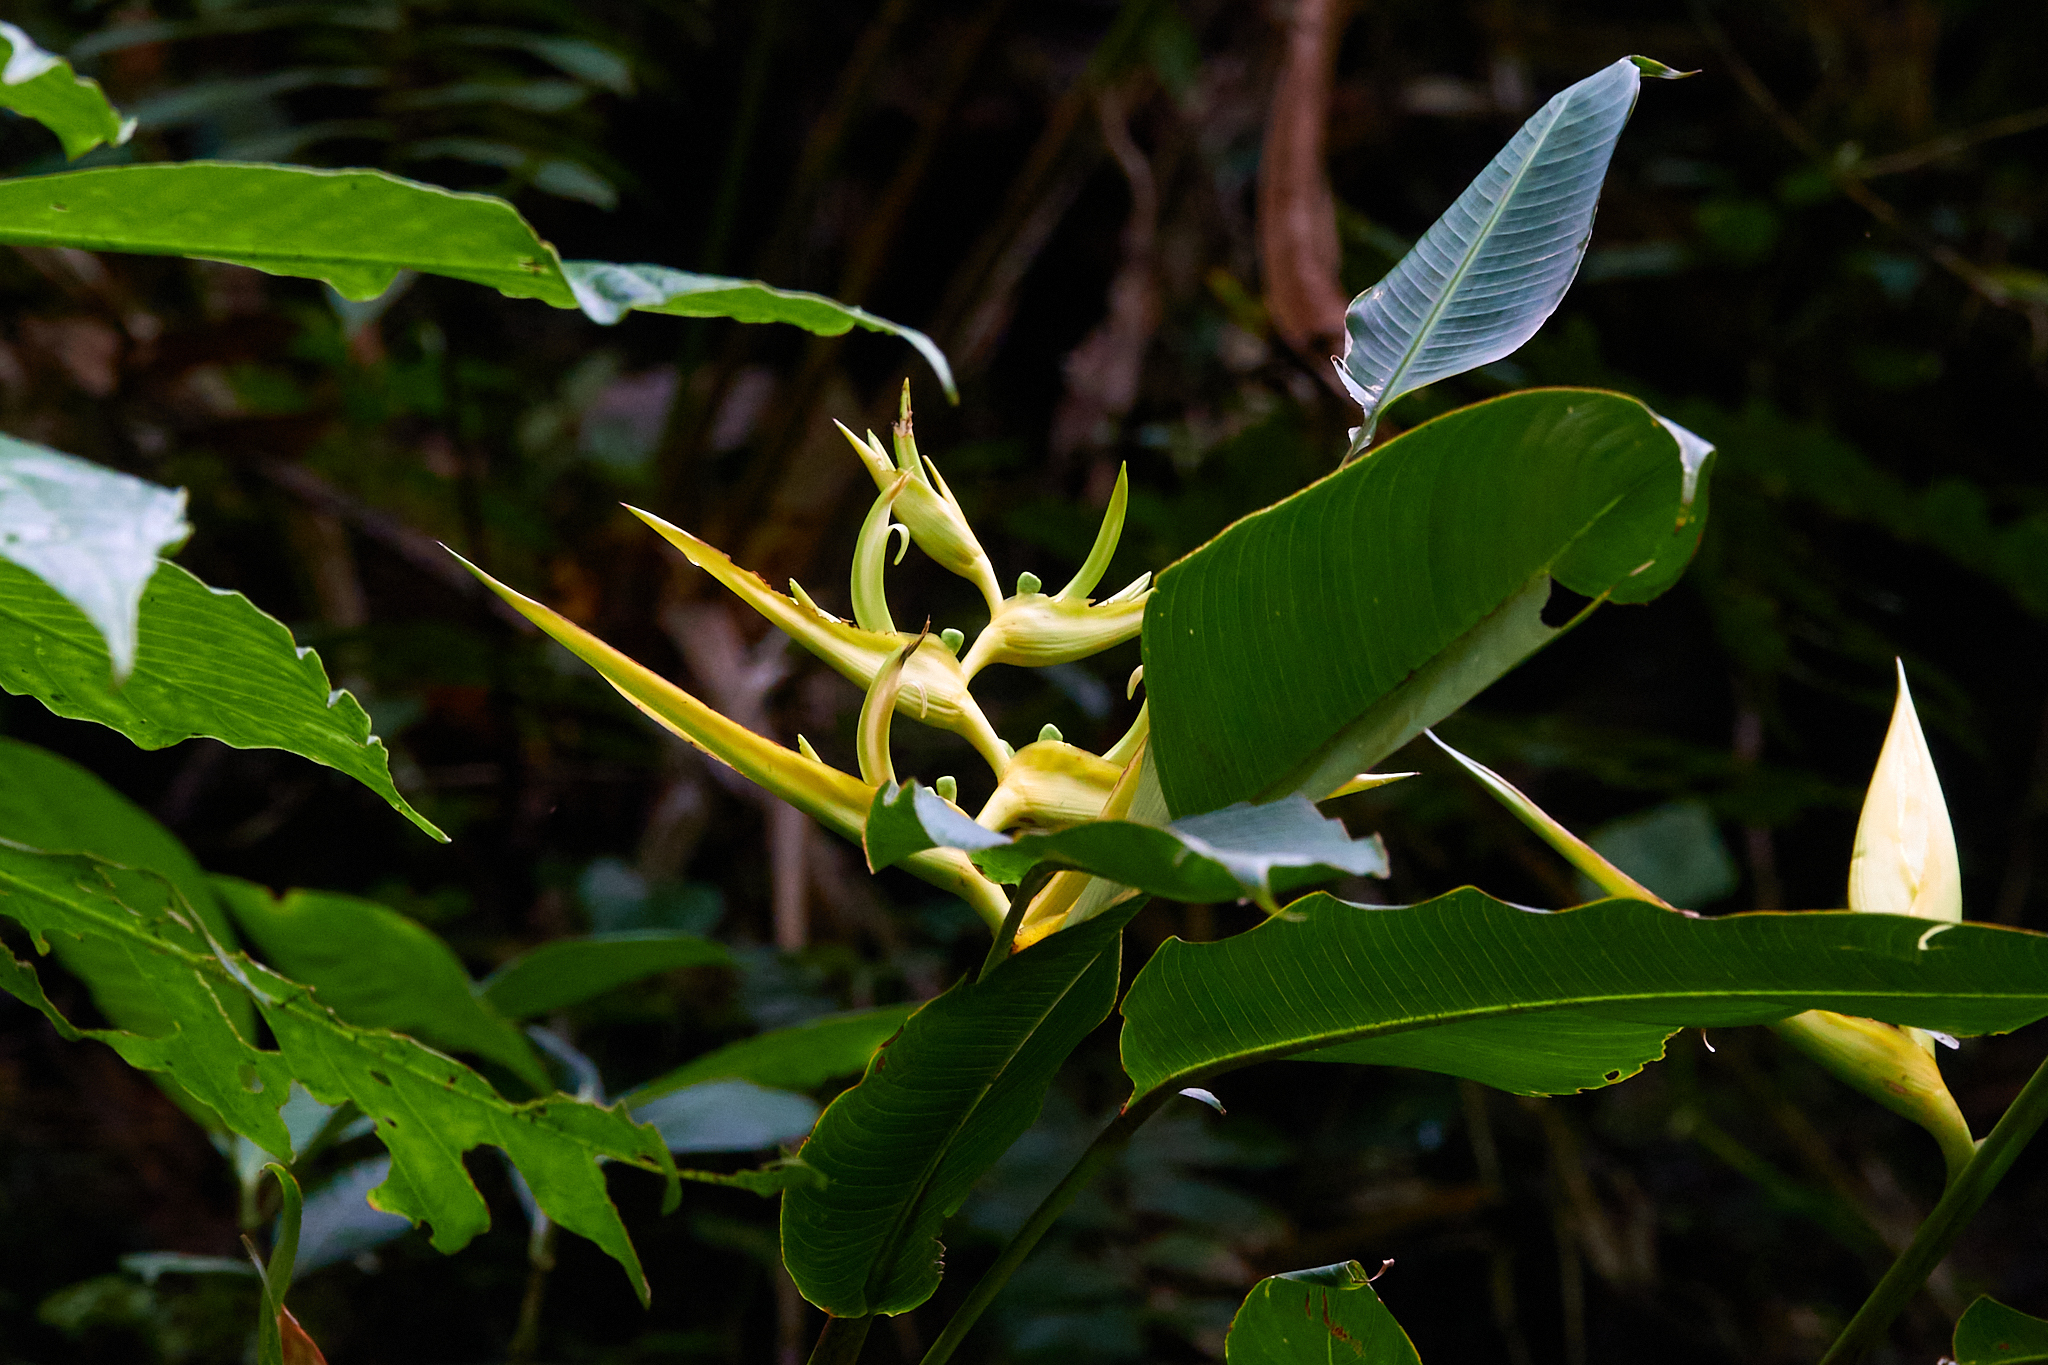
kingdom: Plantae
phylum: Tracheophyta
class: Liliopsida
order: Zingiberales
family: Heliconiaceae
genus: Heliconia
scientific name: Heliconia clinophila
